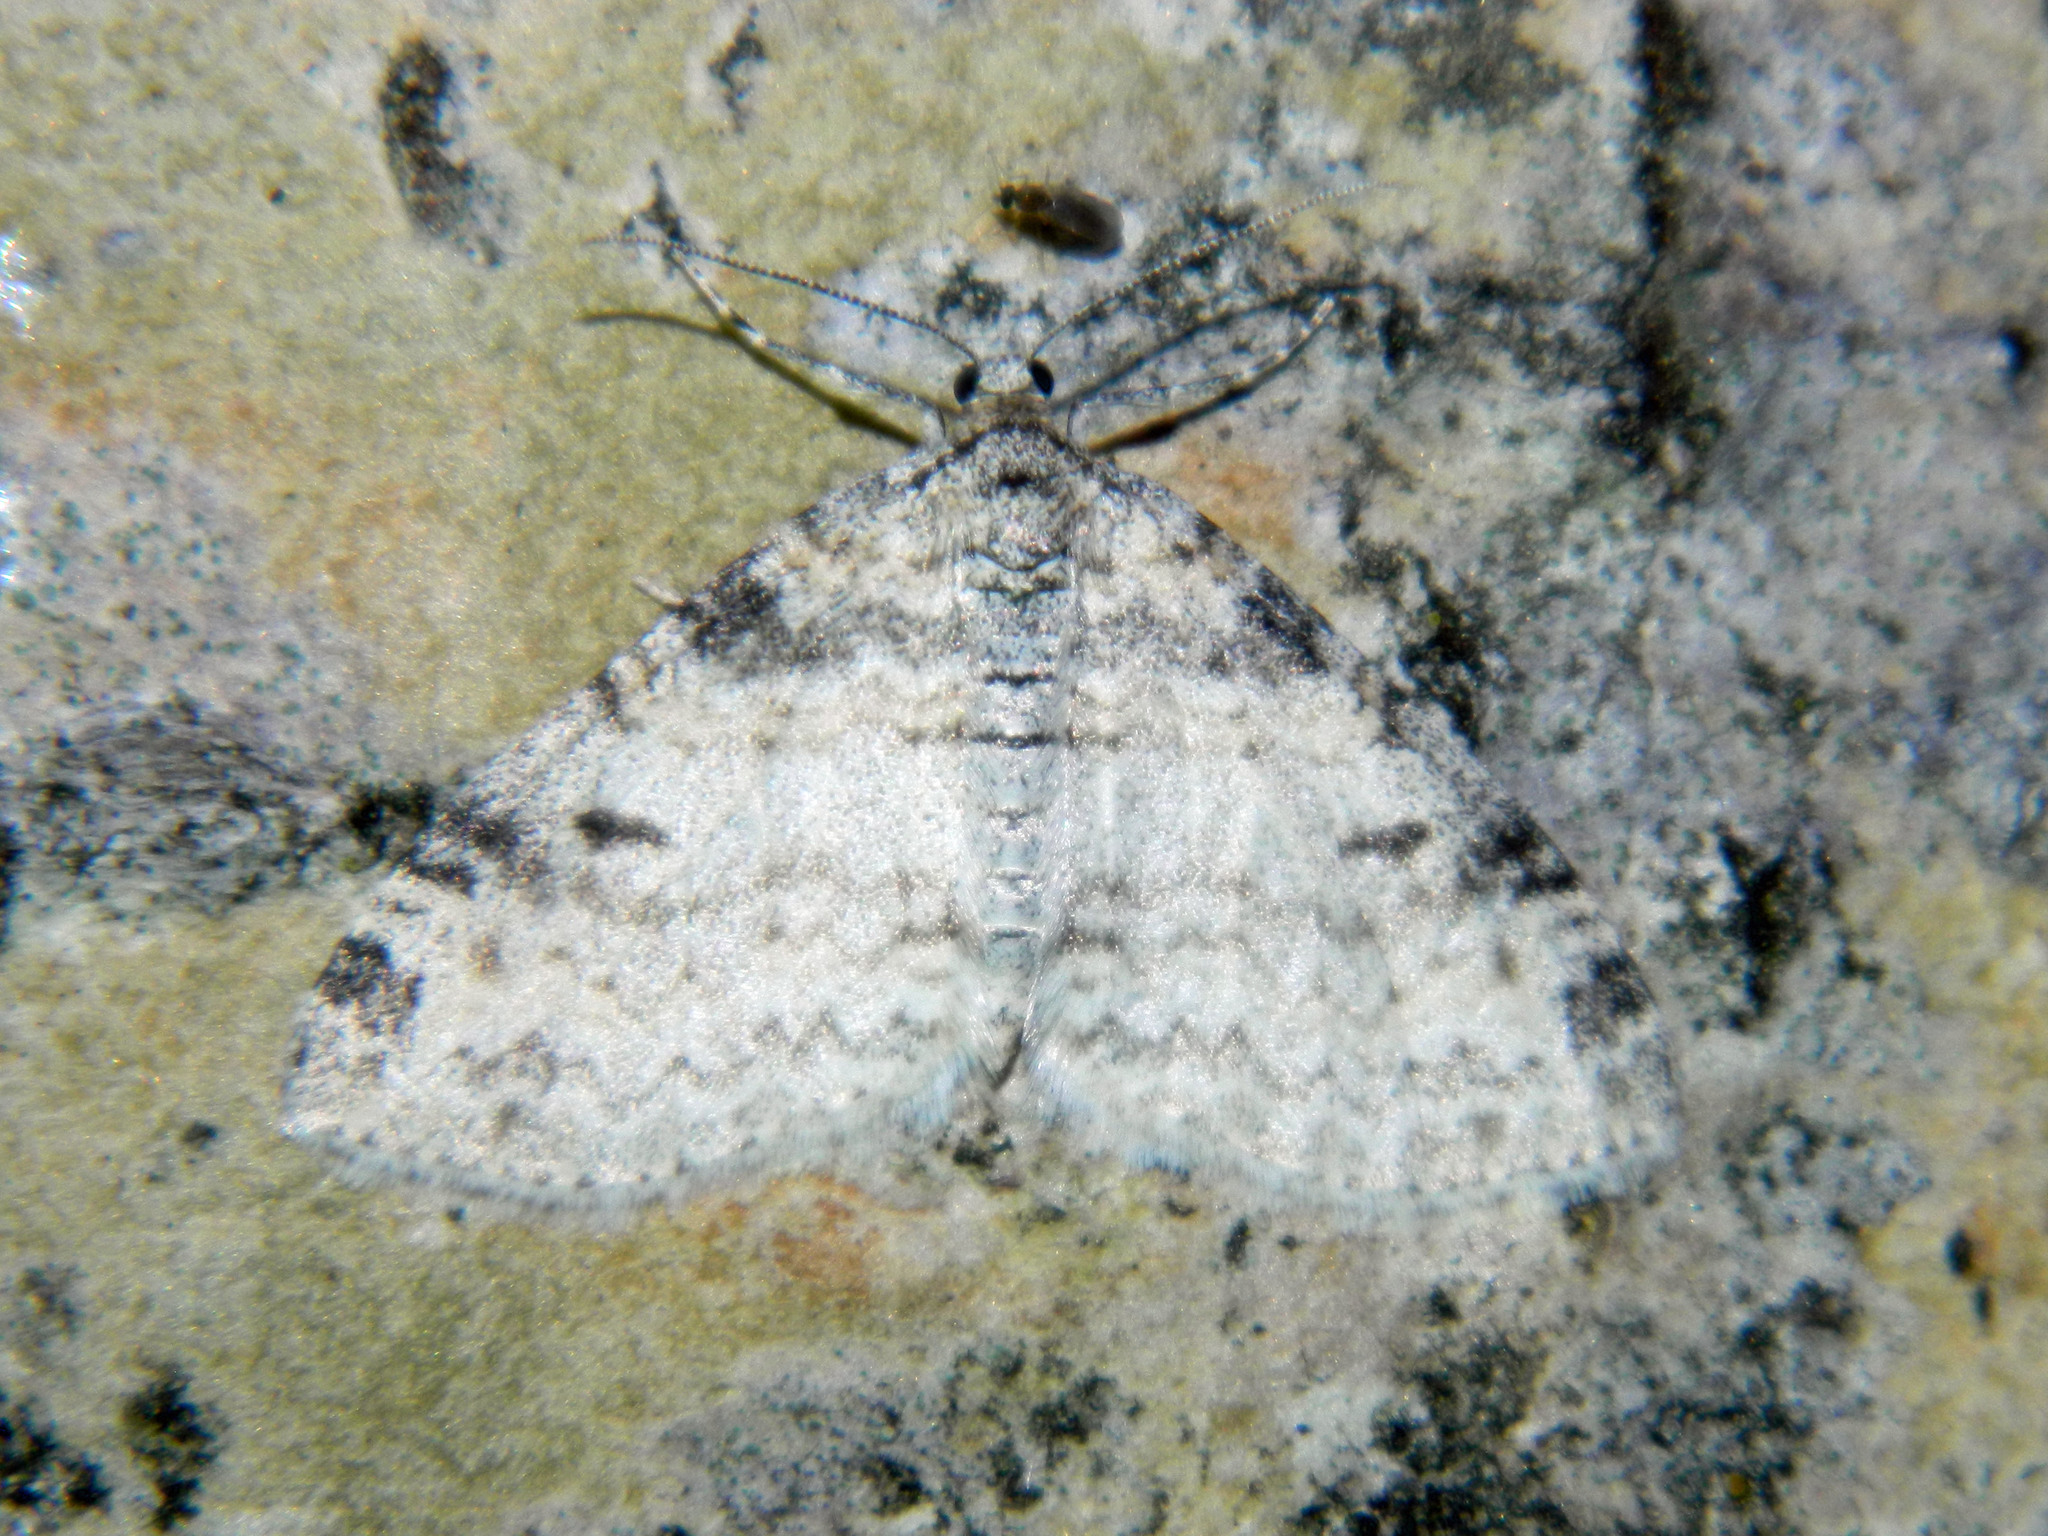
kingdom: Animalia
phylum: Arthropoda
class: Insecta
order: Lepidoptera
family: Geometridae
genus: Lobophora
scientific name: Lobophora nivigerata
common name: Powdered bigwing
